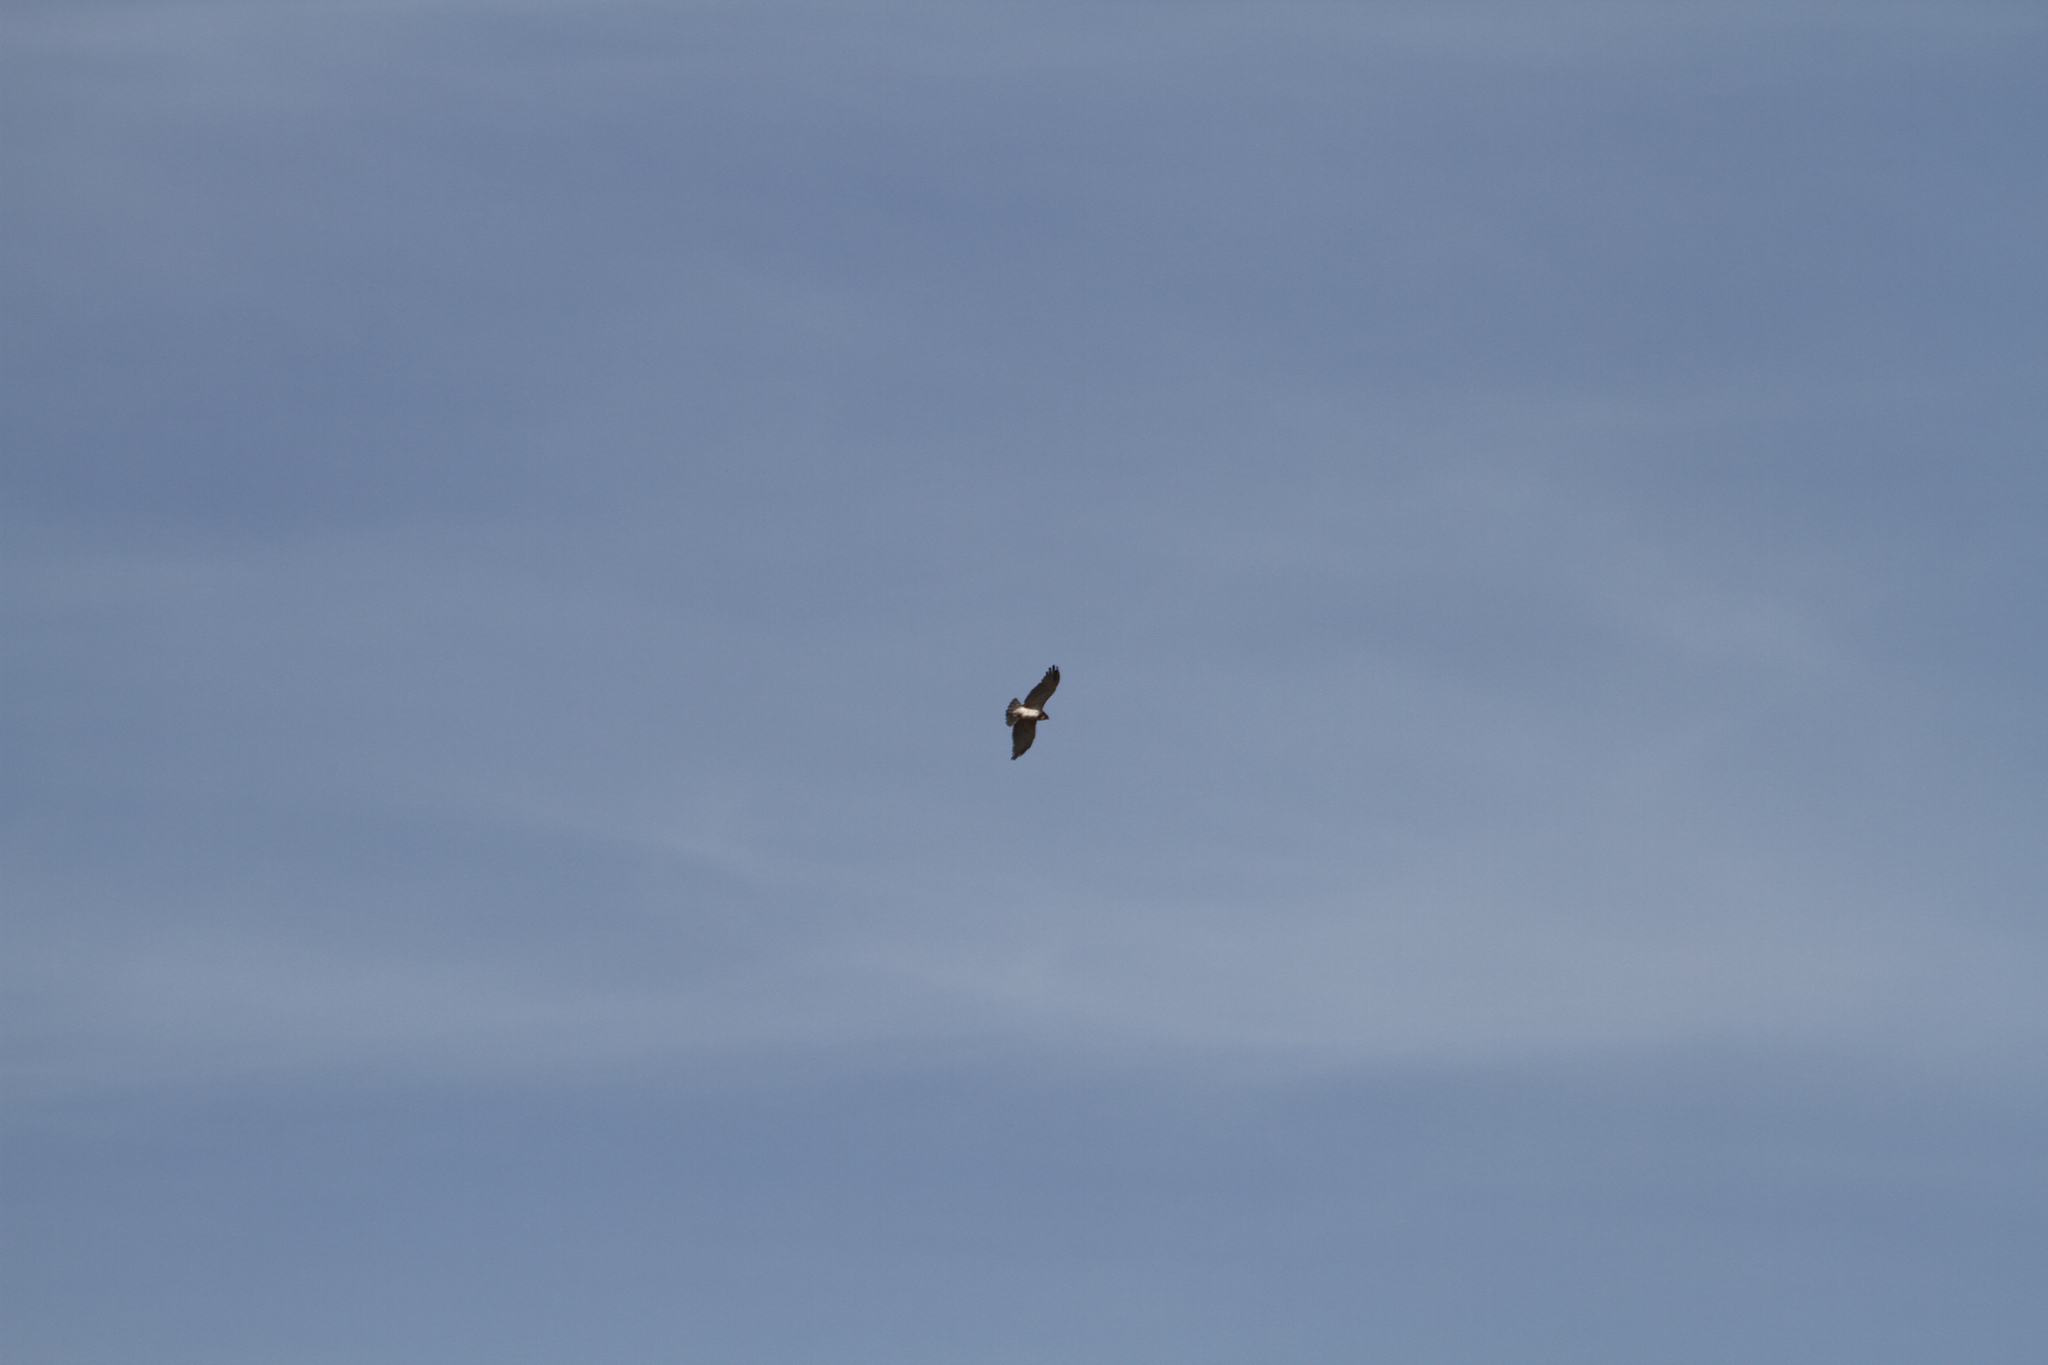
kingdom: Animalia
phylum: Chordata
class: Aves
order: Accipitriformes
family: Accipitridae
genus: Circaetus
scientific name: Circaetus gallicus
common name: Short-toed snake eagle
